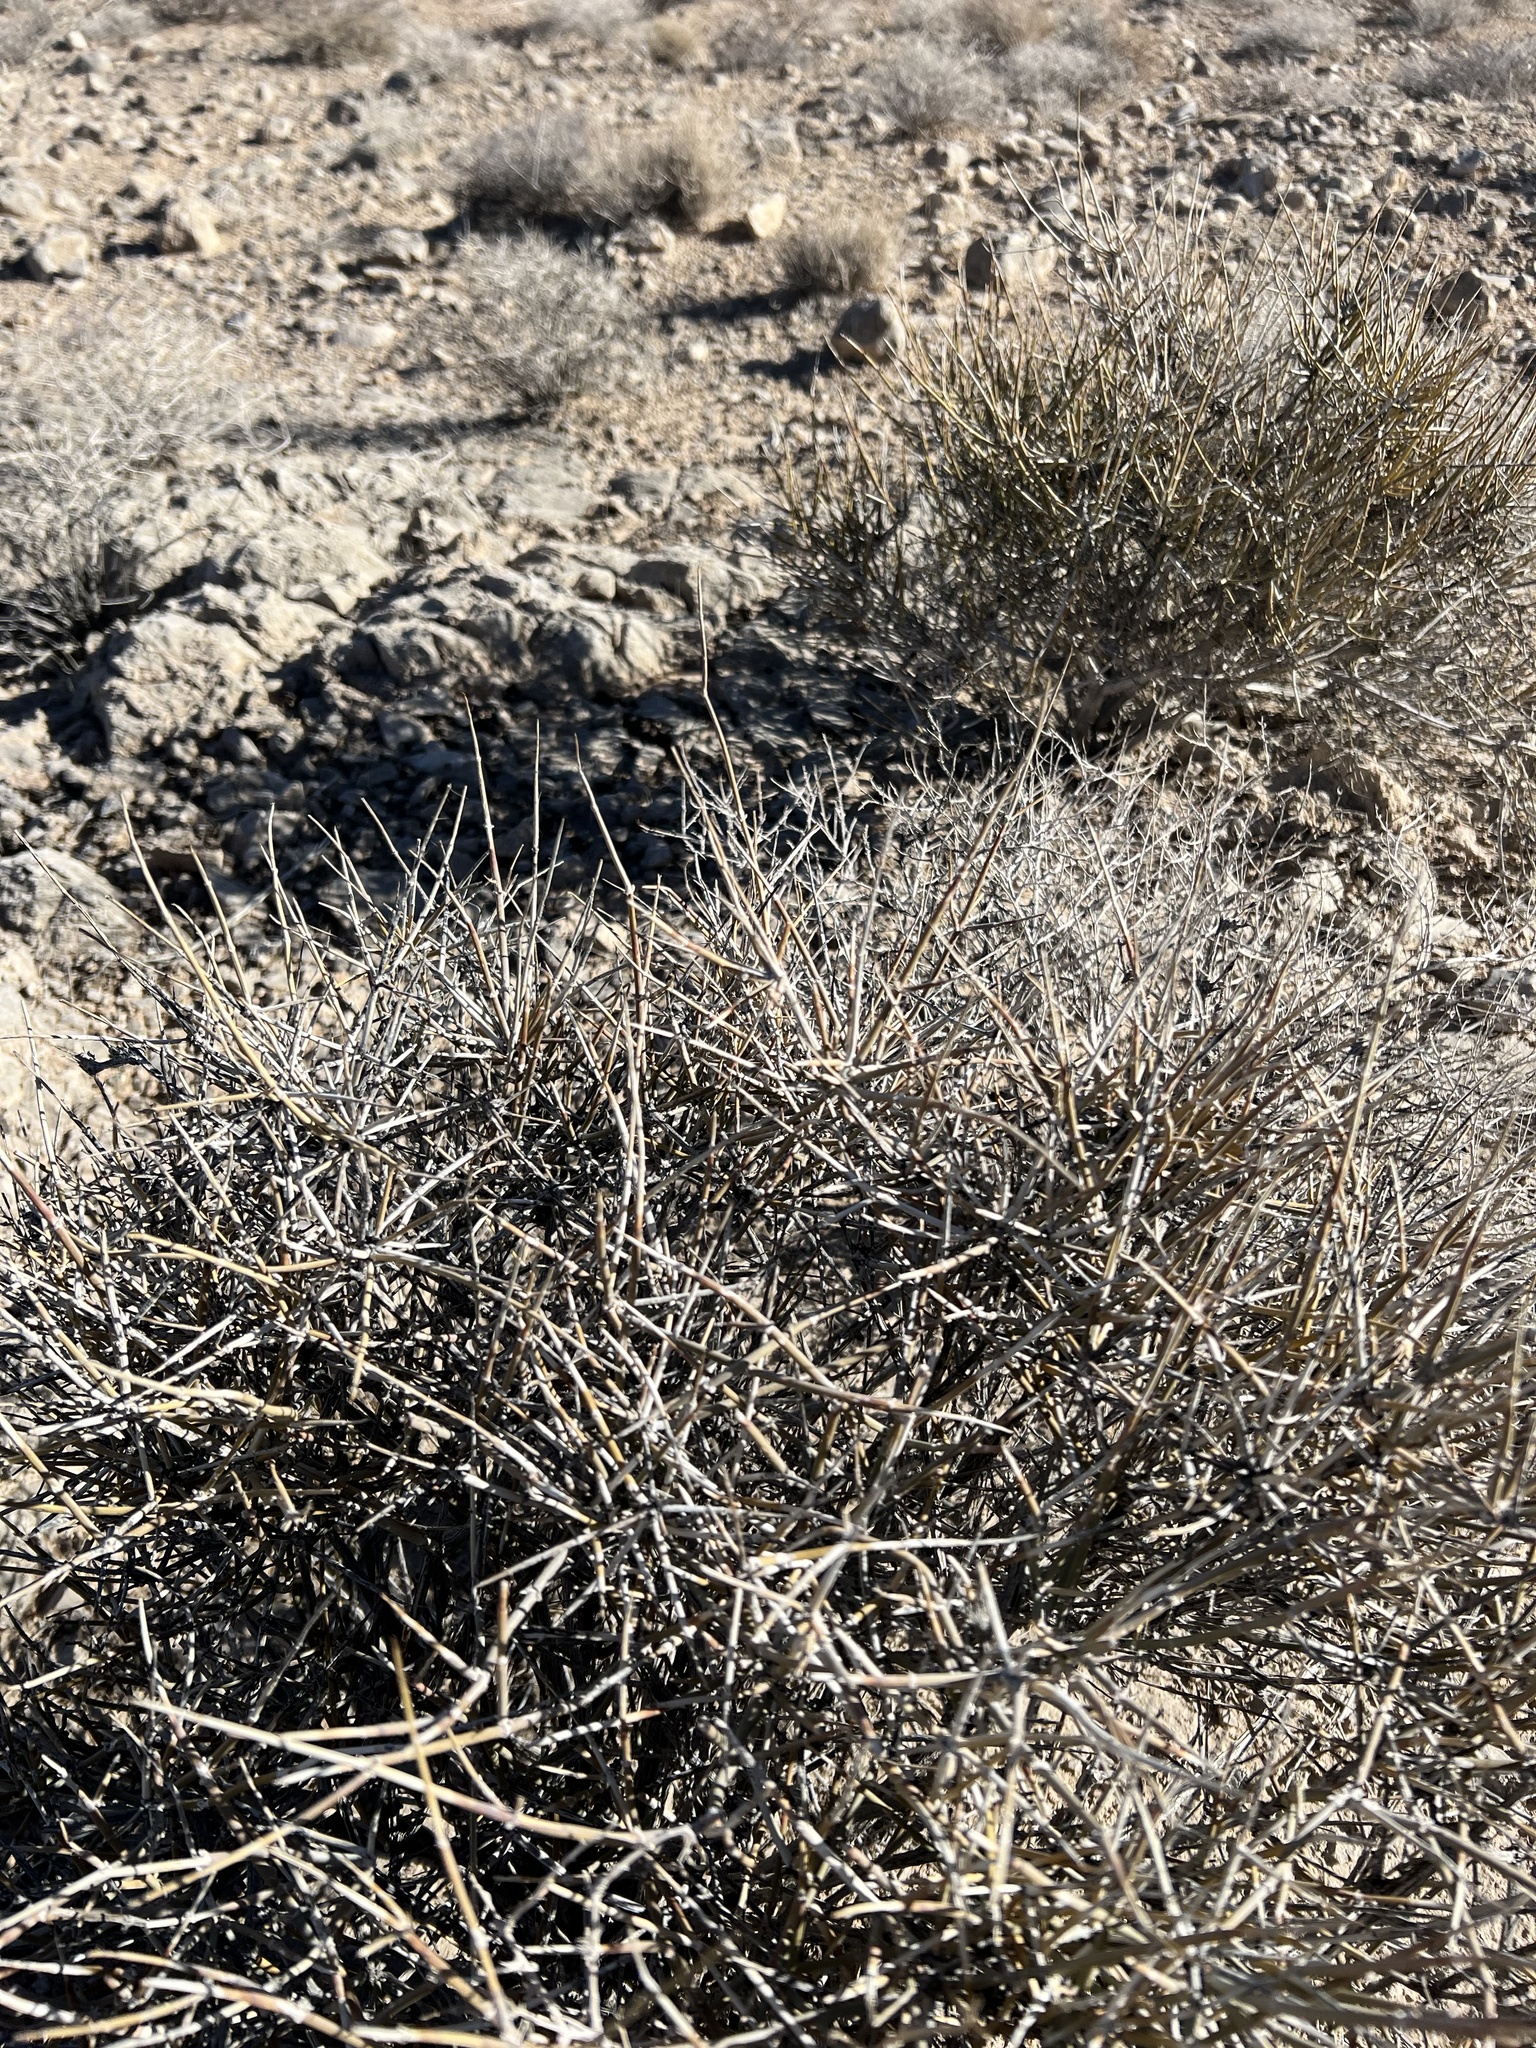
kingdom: Plantae
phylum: Tracheophyta
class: Gnetopsida
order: Ephedrales
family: Ephedraceae
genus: Ephedra
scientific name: Ephedra nevadensis
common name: Gray ephedra
